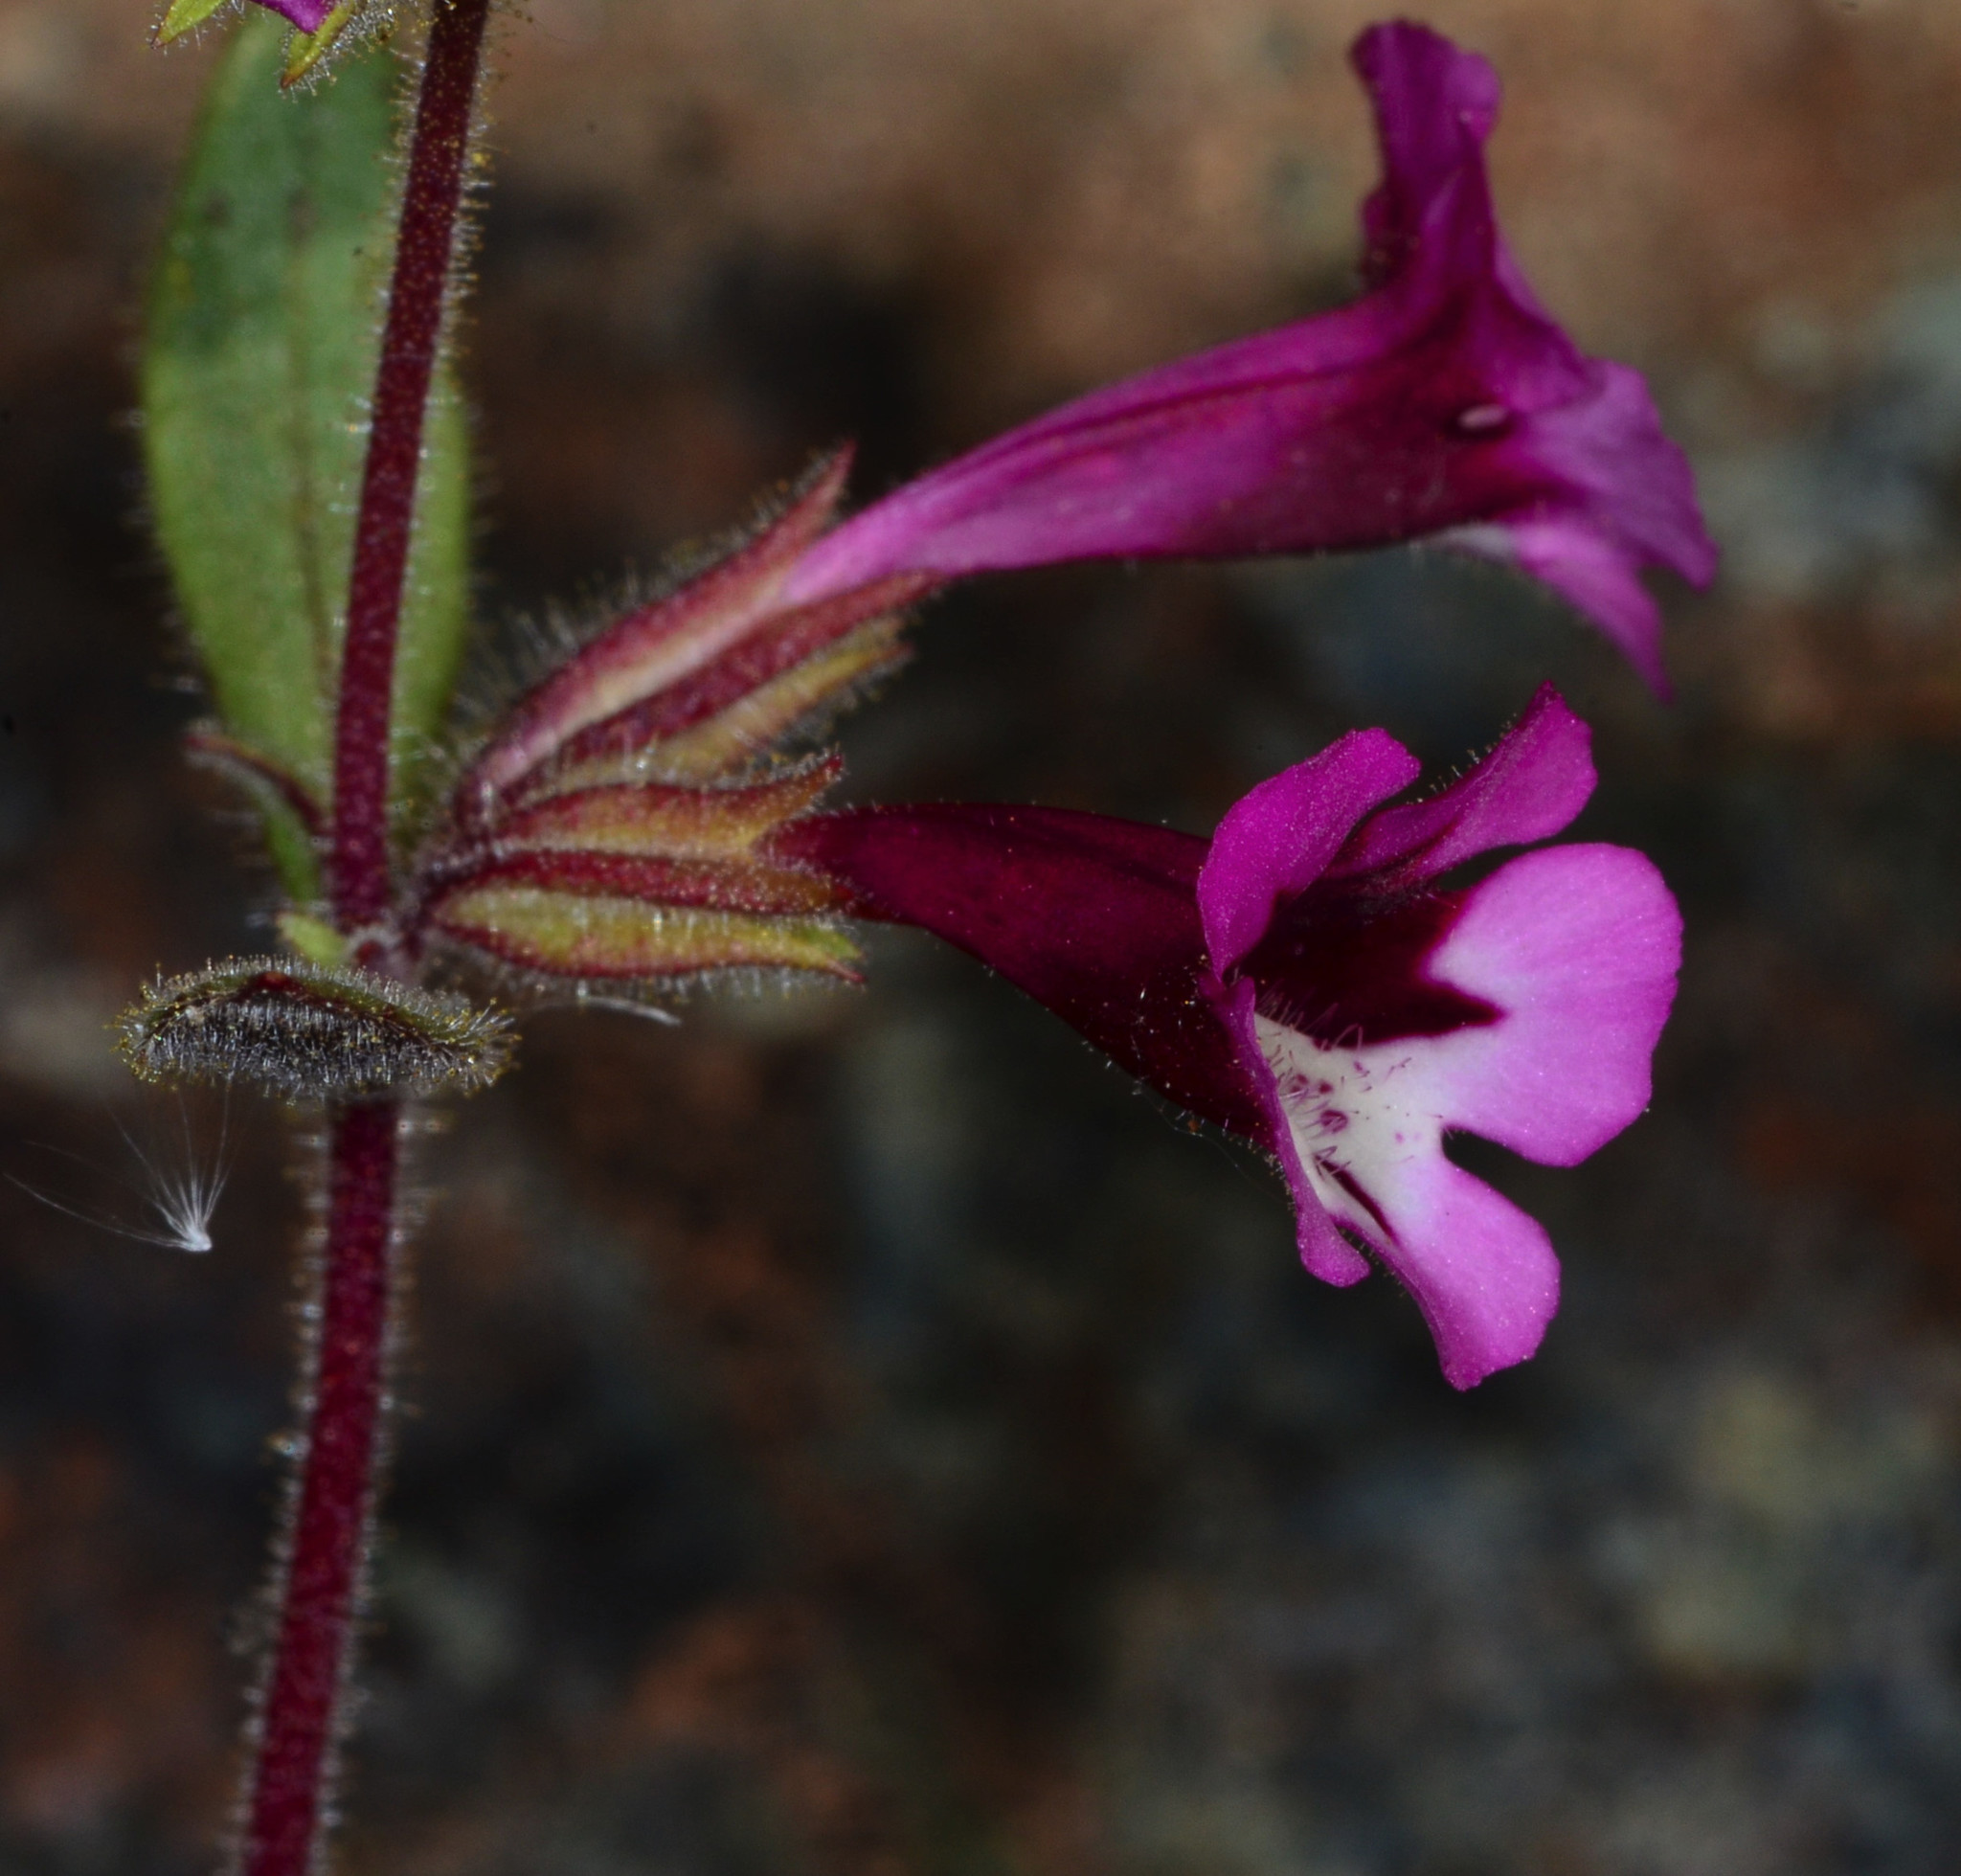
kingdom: Plantae
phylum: Tracheophyta
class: Magnoliopsida
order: Lamiales
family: Phrymaceae
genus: Diplacus
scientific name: Diplacus layneae
